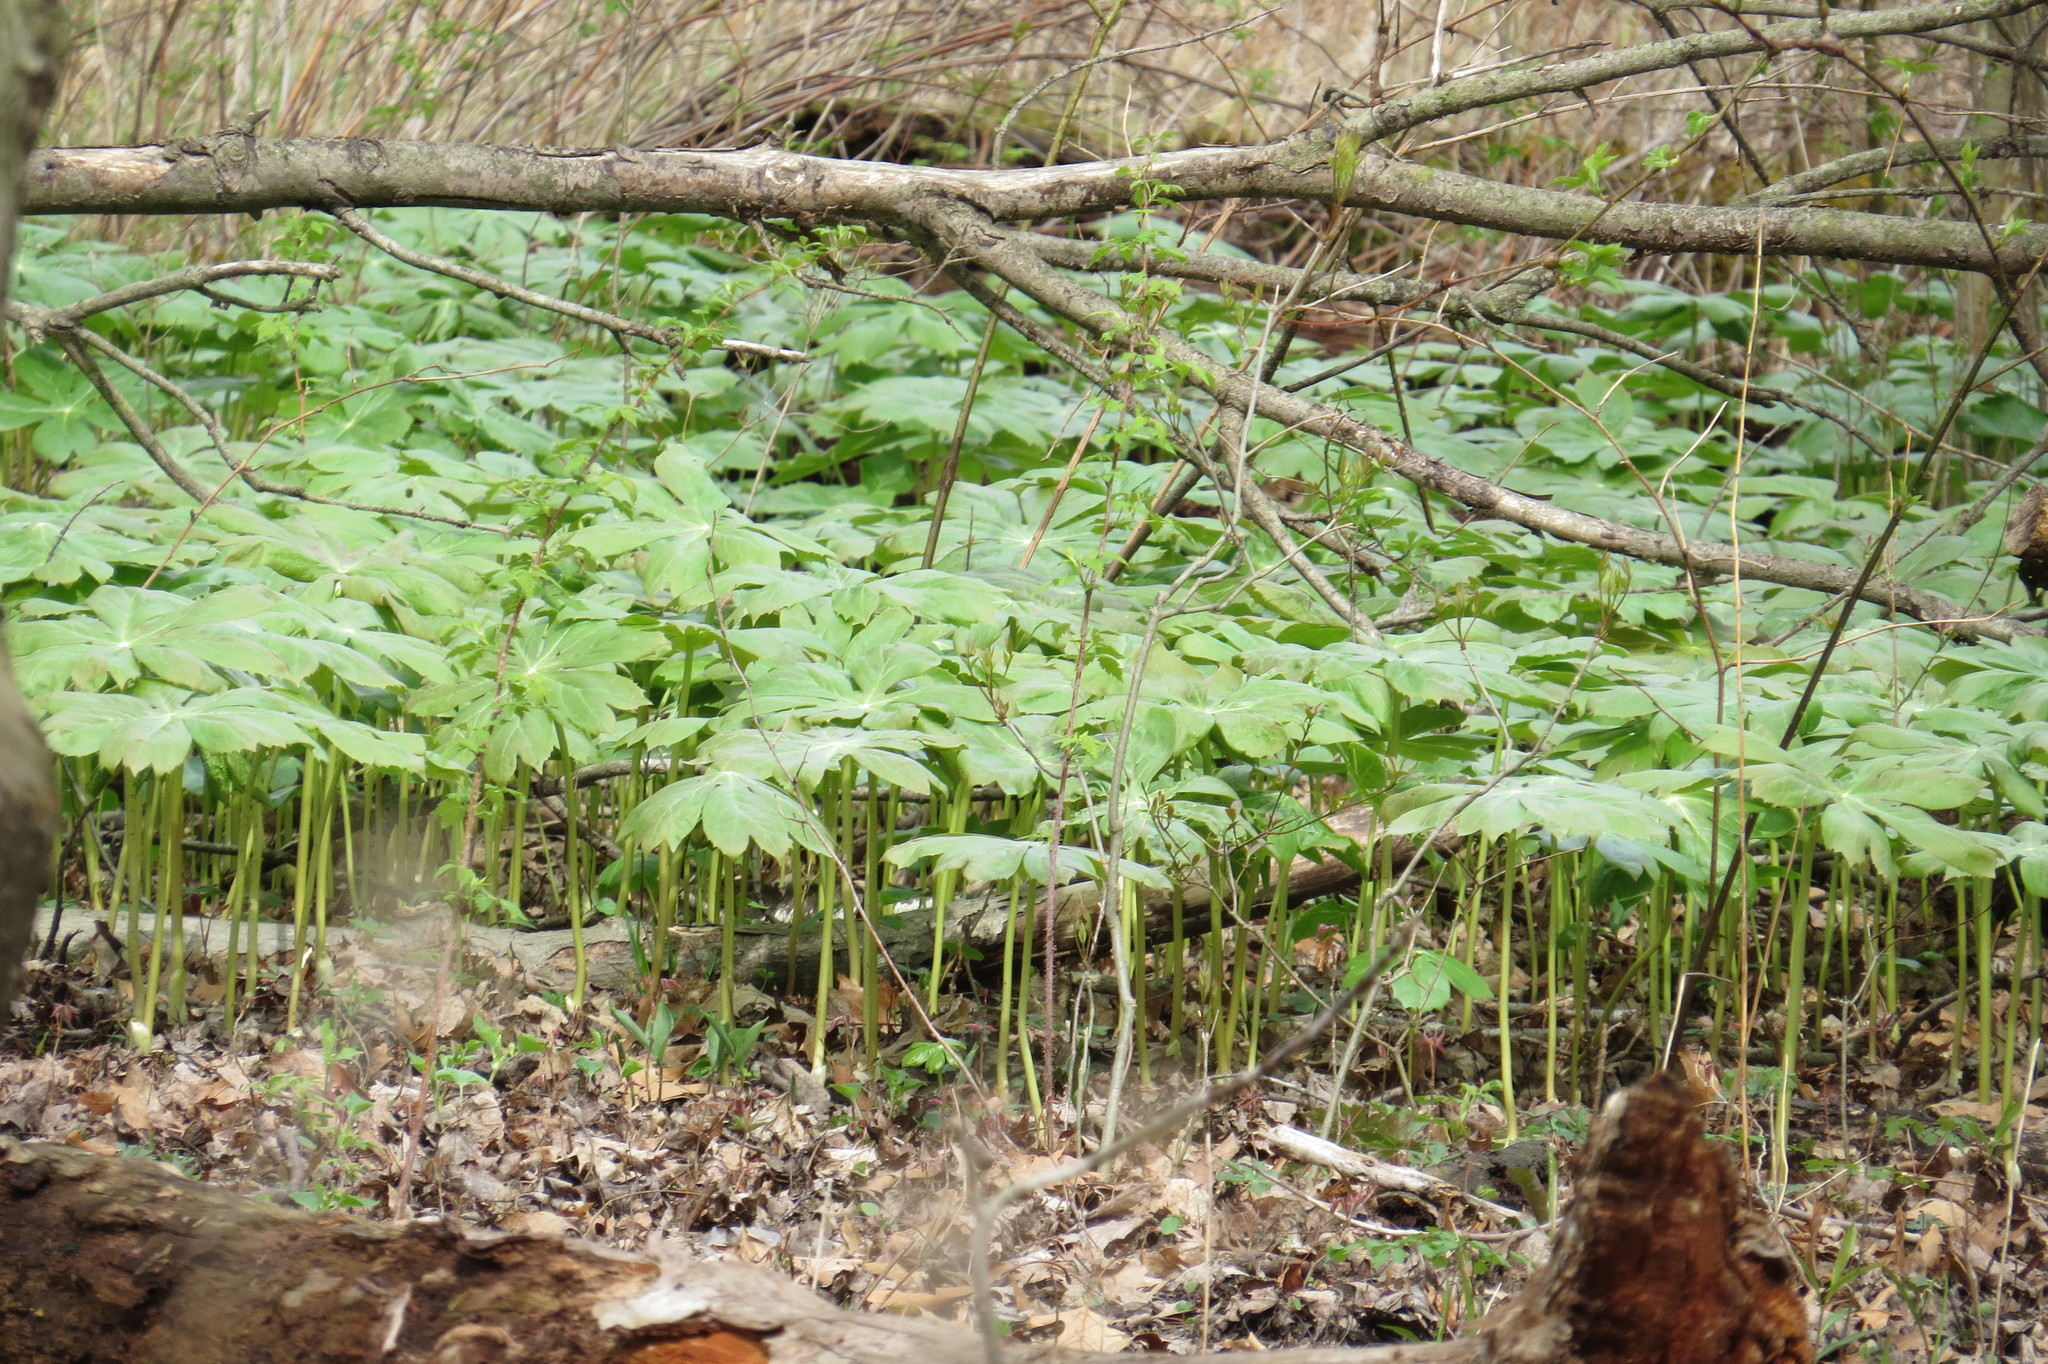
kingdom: Plantae
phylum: Tracheophyta
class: Magnoliopsida
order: Ranunculales
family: Berberidaceae
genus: Podophyllum
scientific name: Podophyllum peltatum
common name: Wild mandrake
